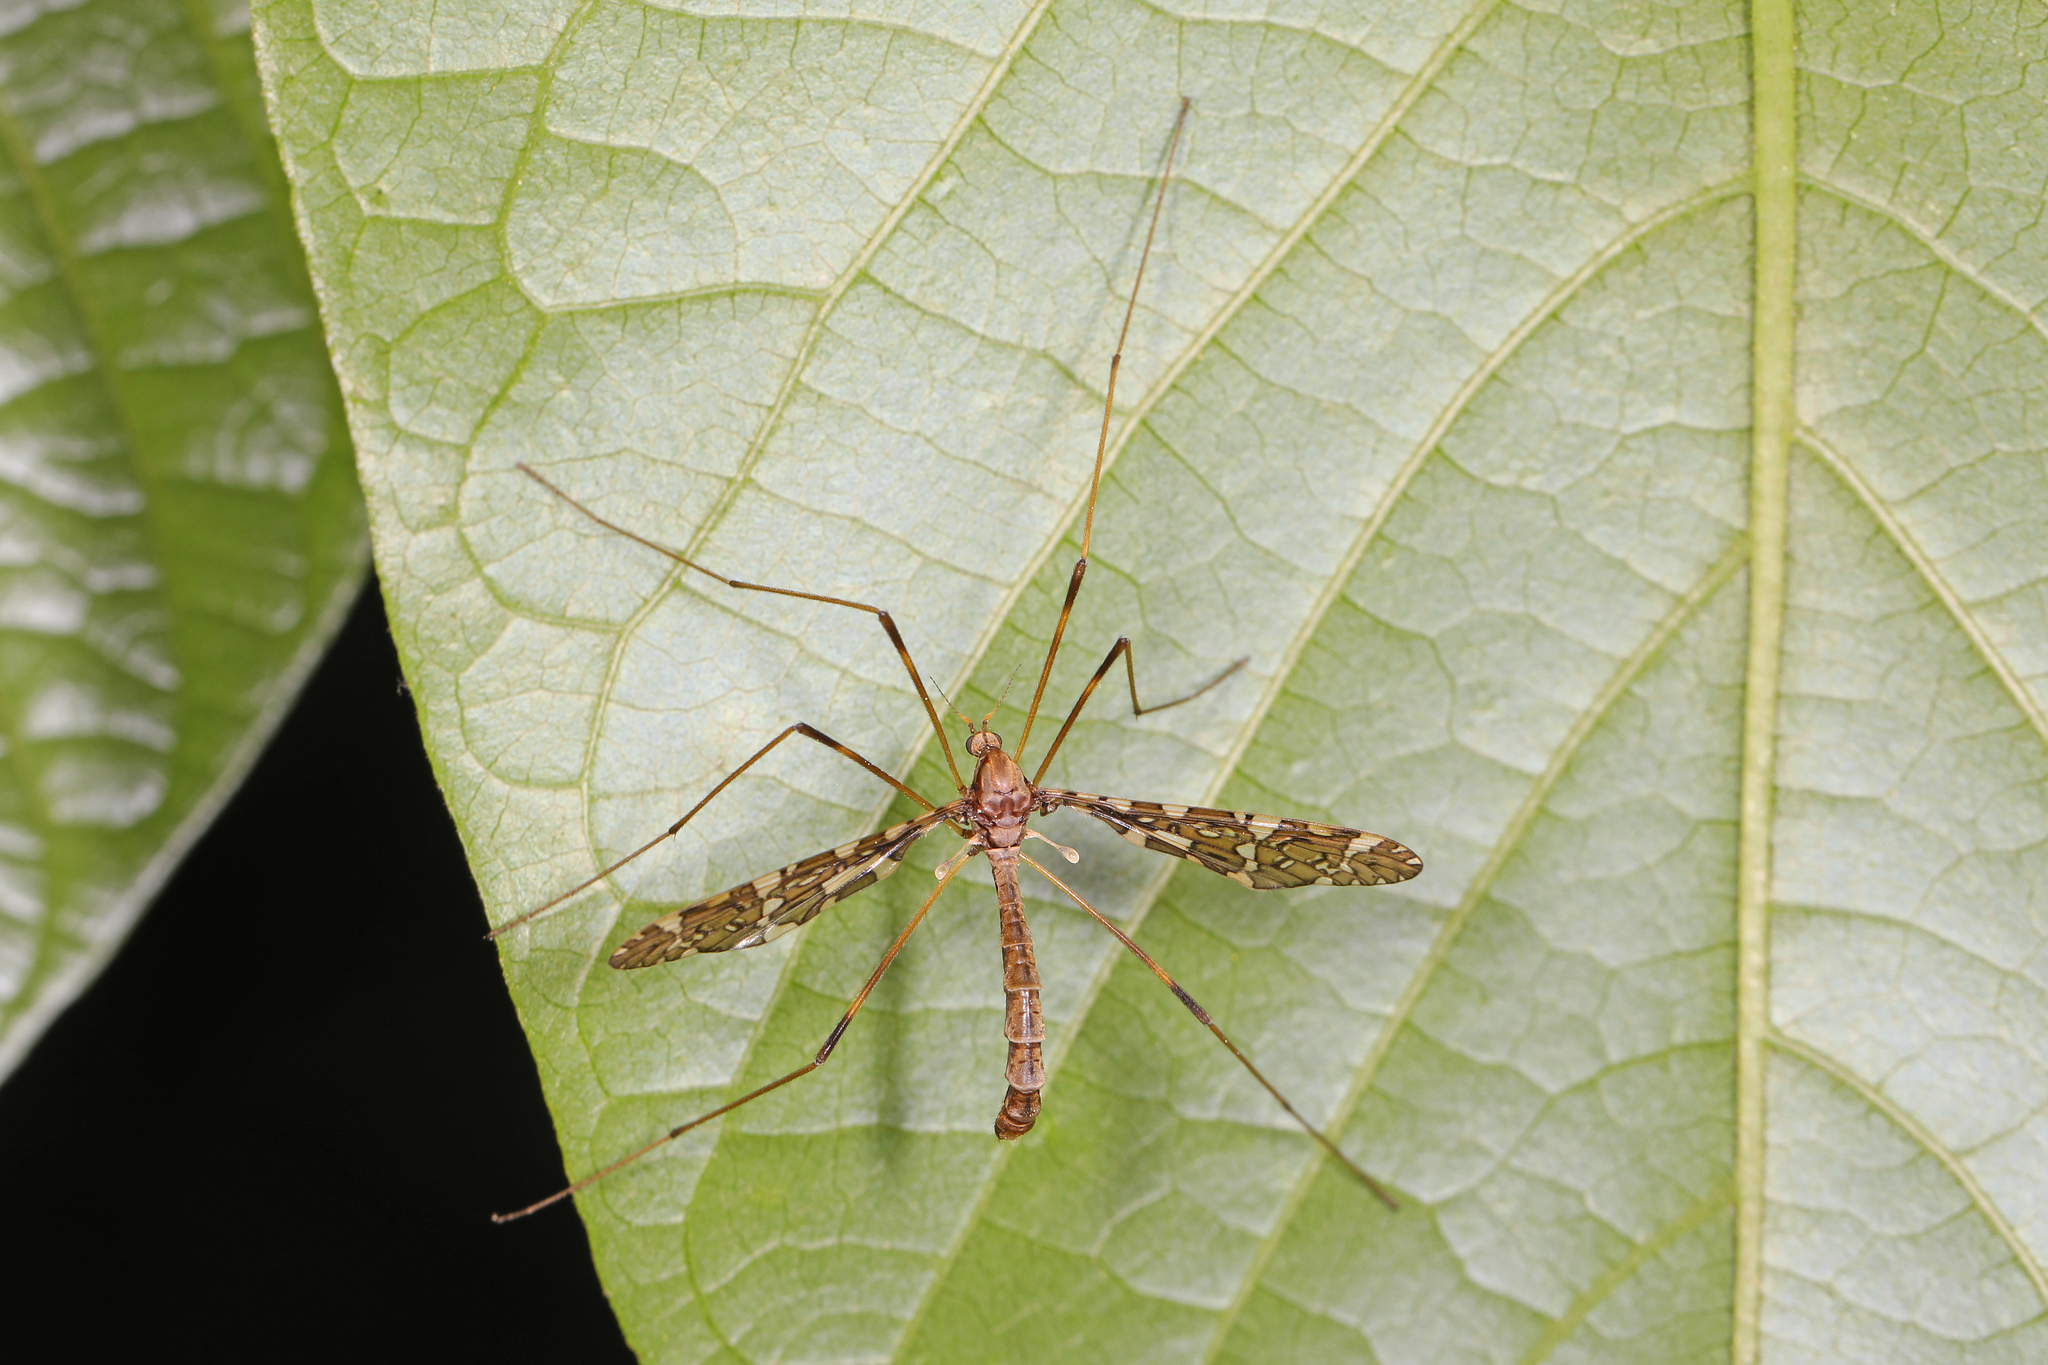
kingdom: Animalia
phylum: Arthropoda
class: Insecta
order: Diptera
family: Limoniidae
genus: Epiphragma
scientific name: Epiphragma fasciapenne
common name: Band-winged crane fly
